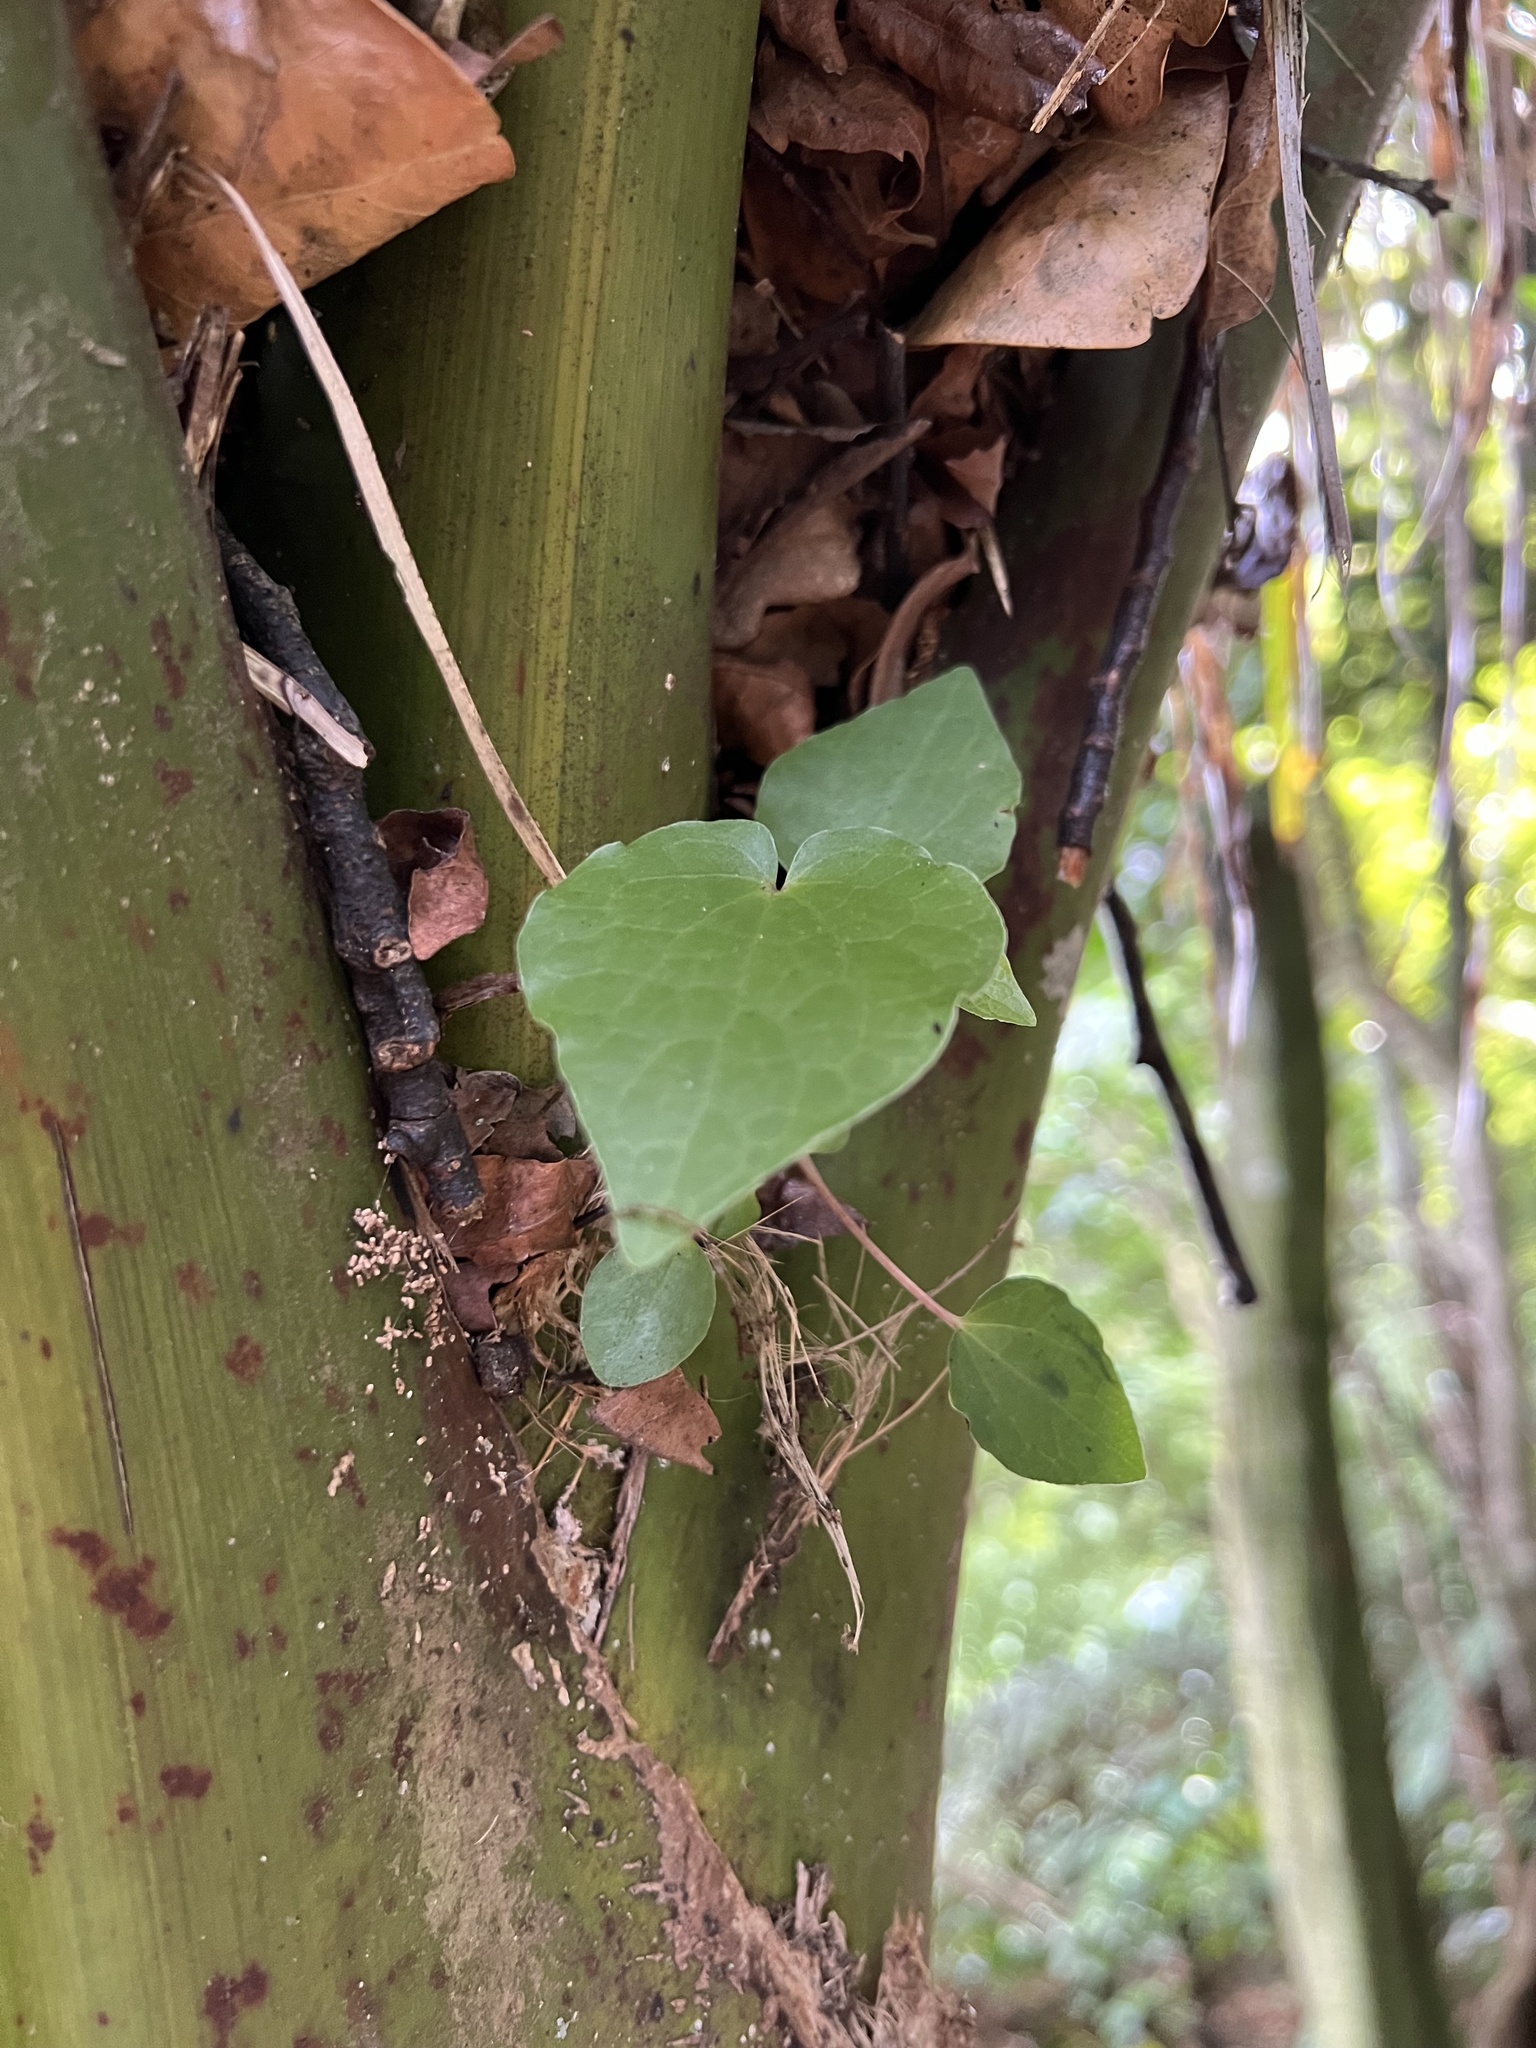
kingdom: Plantae
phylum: Tracheophyta
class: Magnoliopsida
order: Piperales
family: Piperaceae
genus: Macropiper
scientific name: Macropiper excelsum
